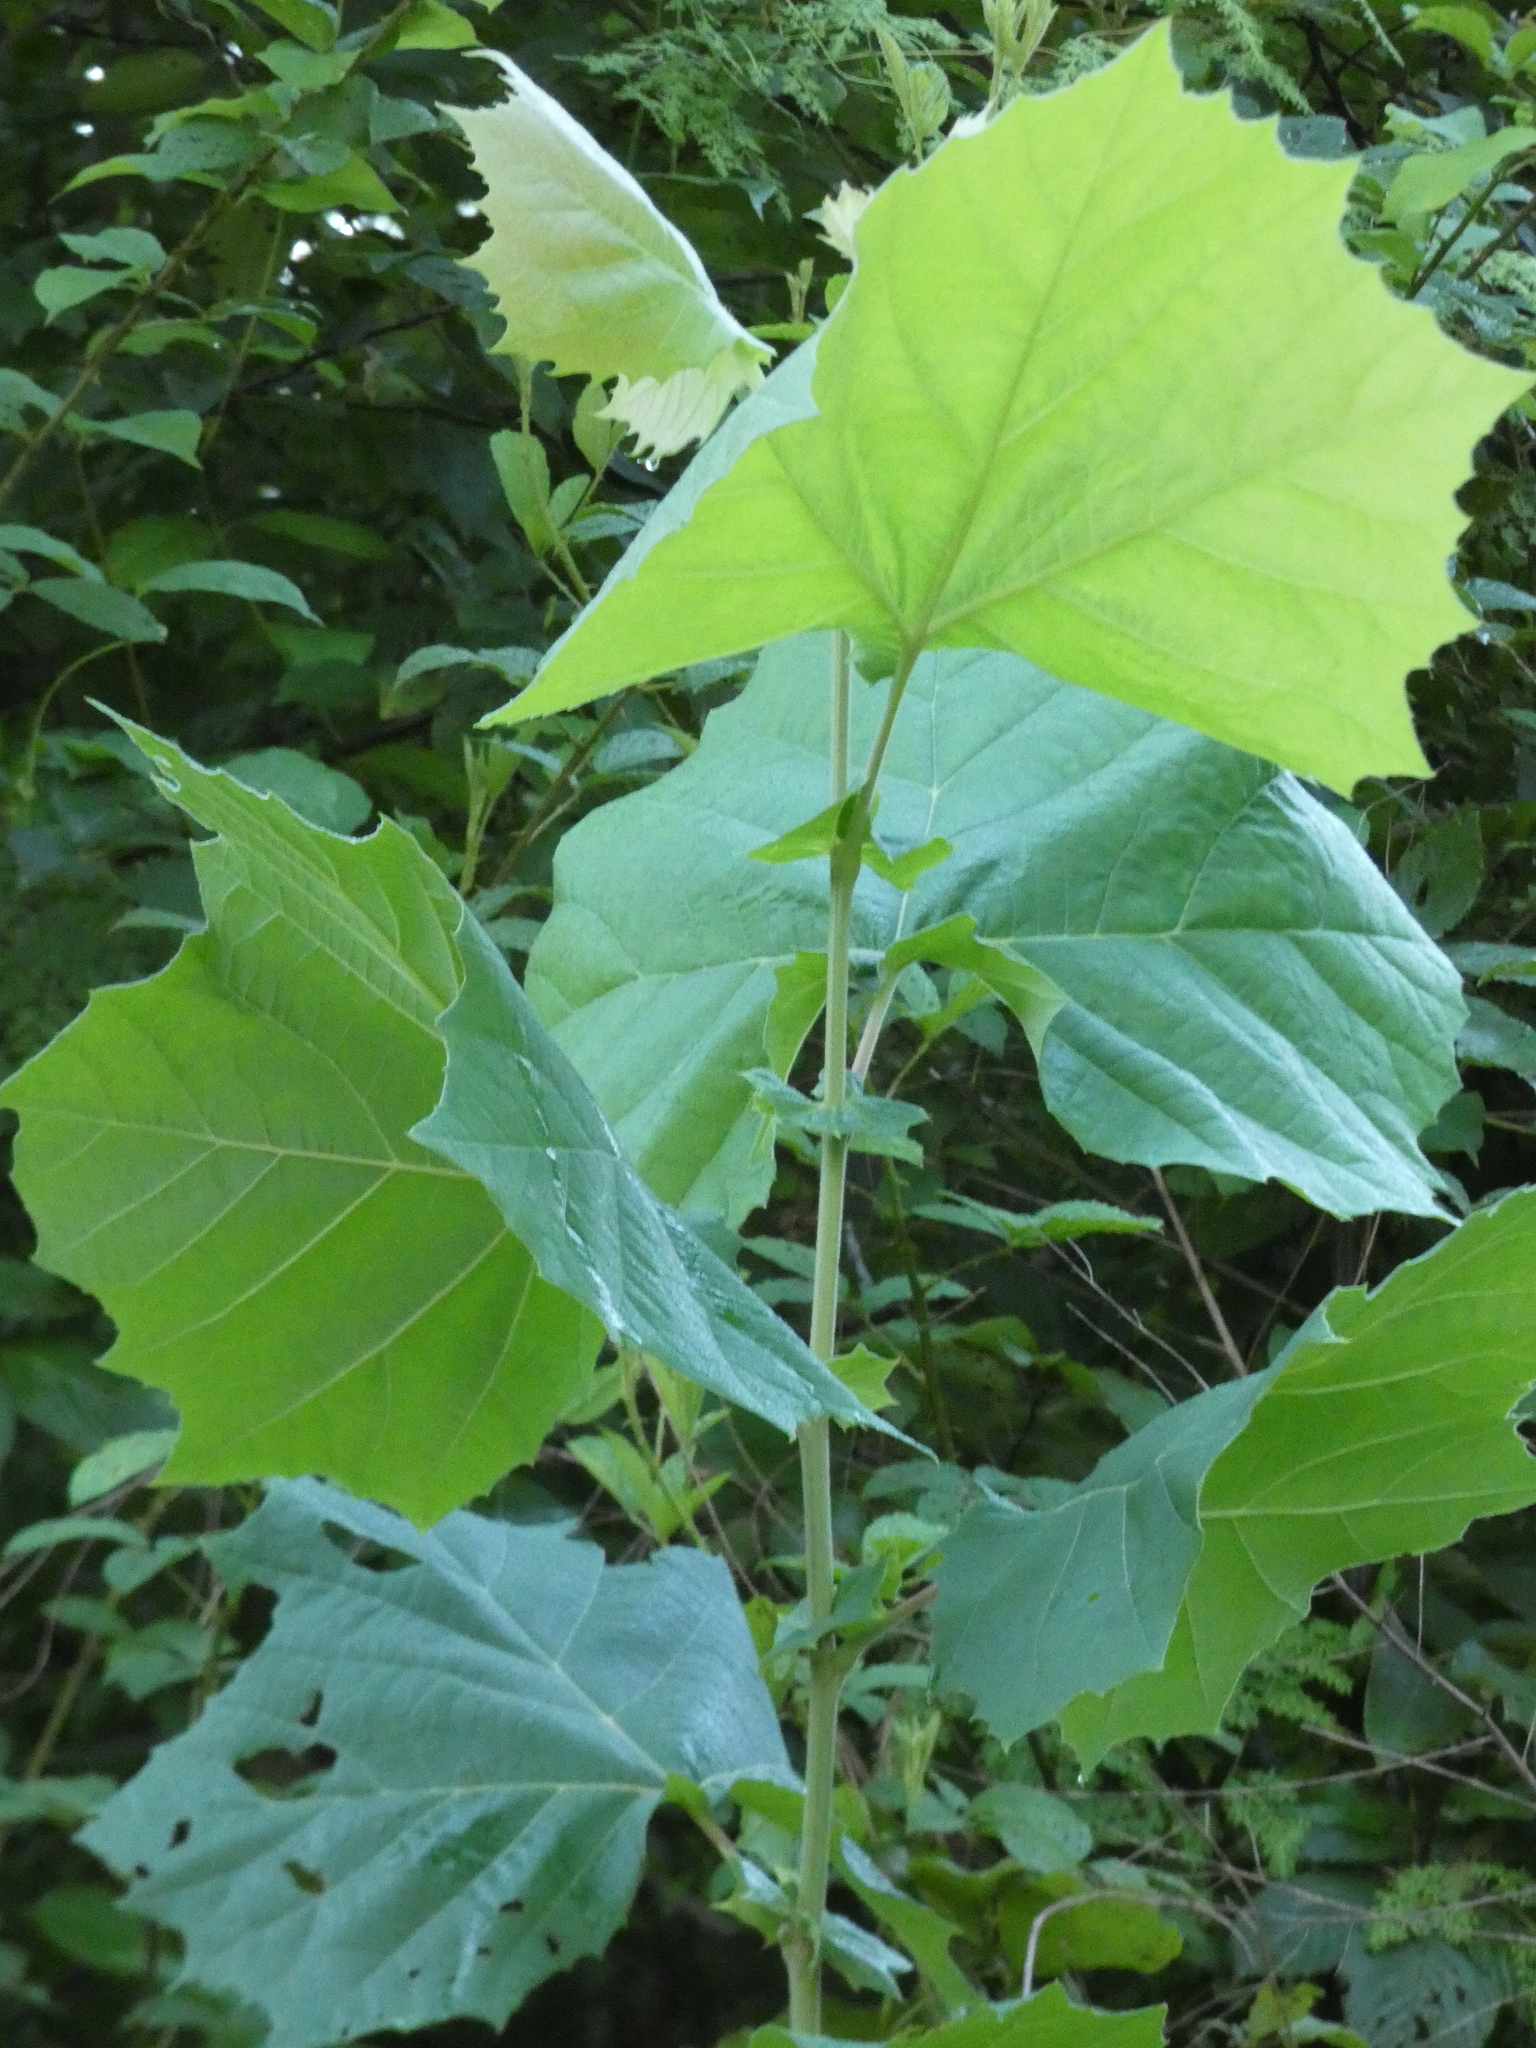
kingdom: Plantae
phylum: Tracheophyta
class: Magnoliopsida
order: Proteales
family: Platanaceae
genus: Platanus
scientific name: Platanus occidentalis
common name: American sycamore
